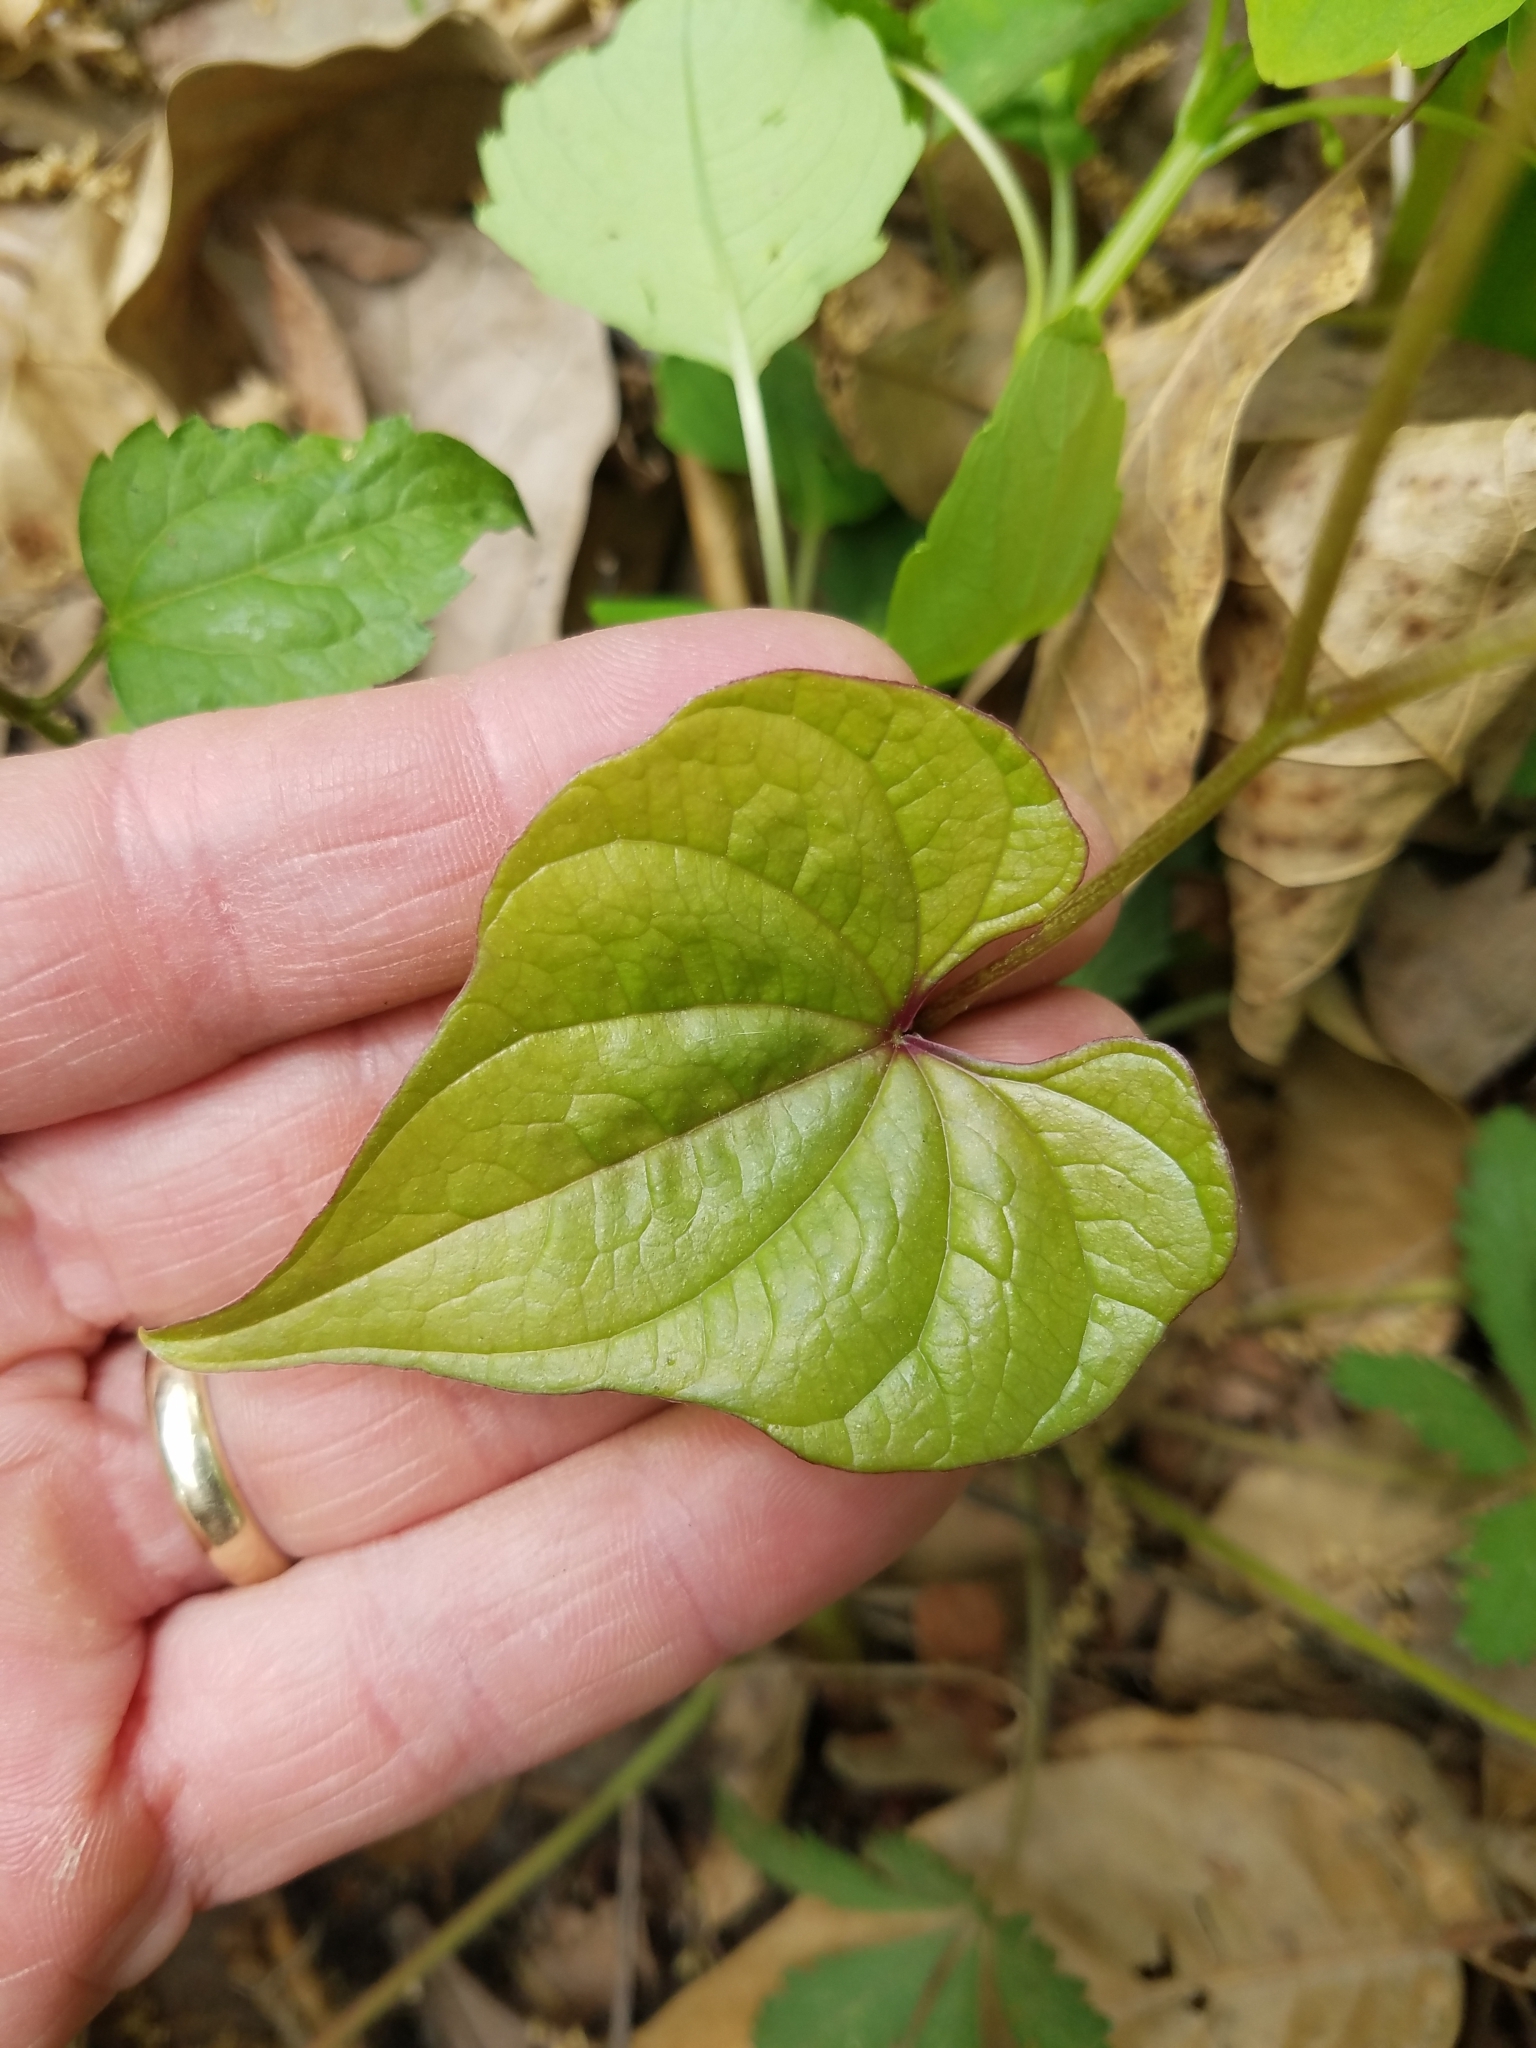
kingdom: Plantae
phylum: Tracheophyta
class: Liliopsida
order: Dioscoreales
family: Dioscoreaceae
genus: Dioscorea
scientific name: Dioscorea polystachya
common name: Chinese yam
